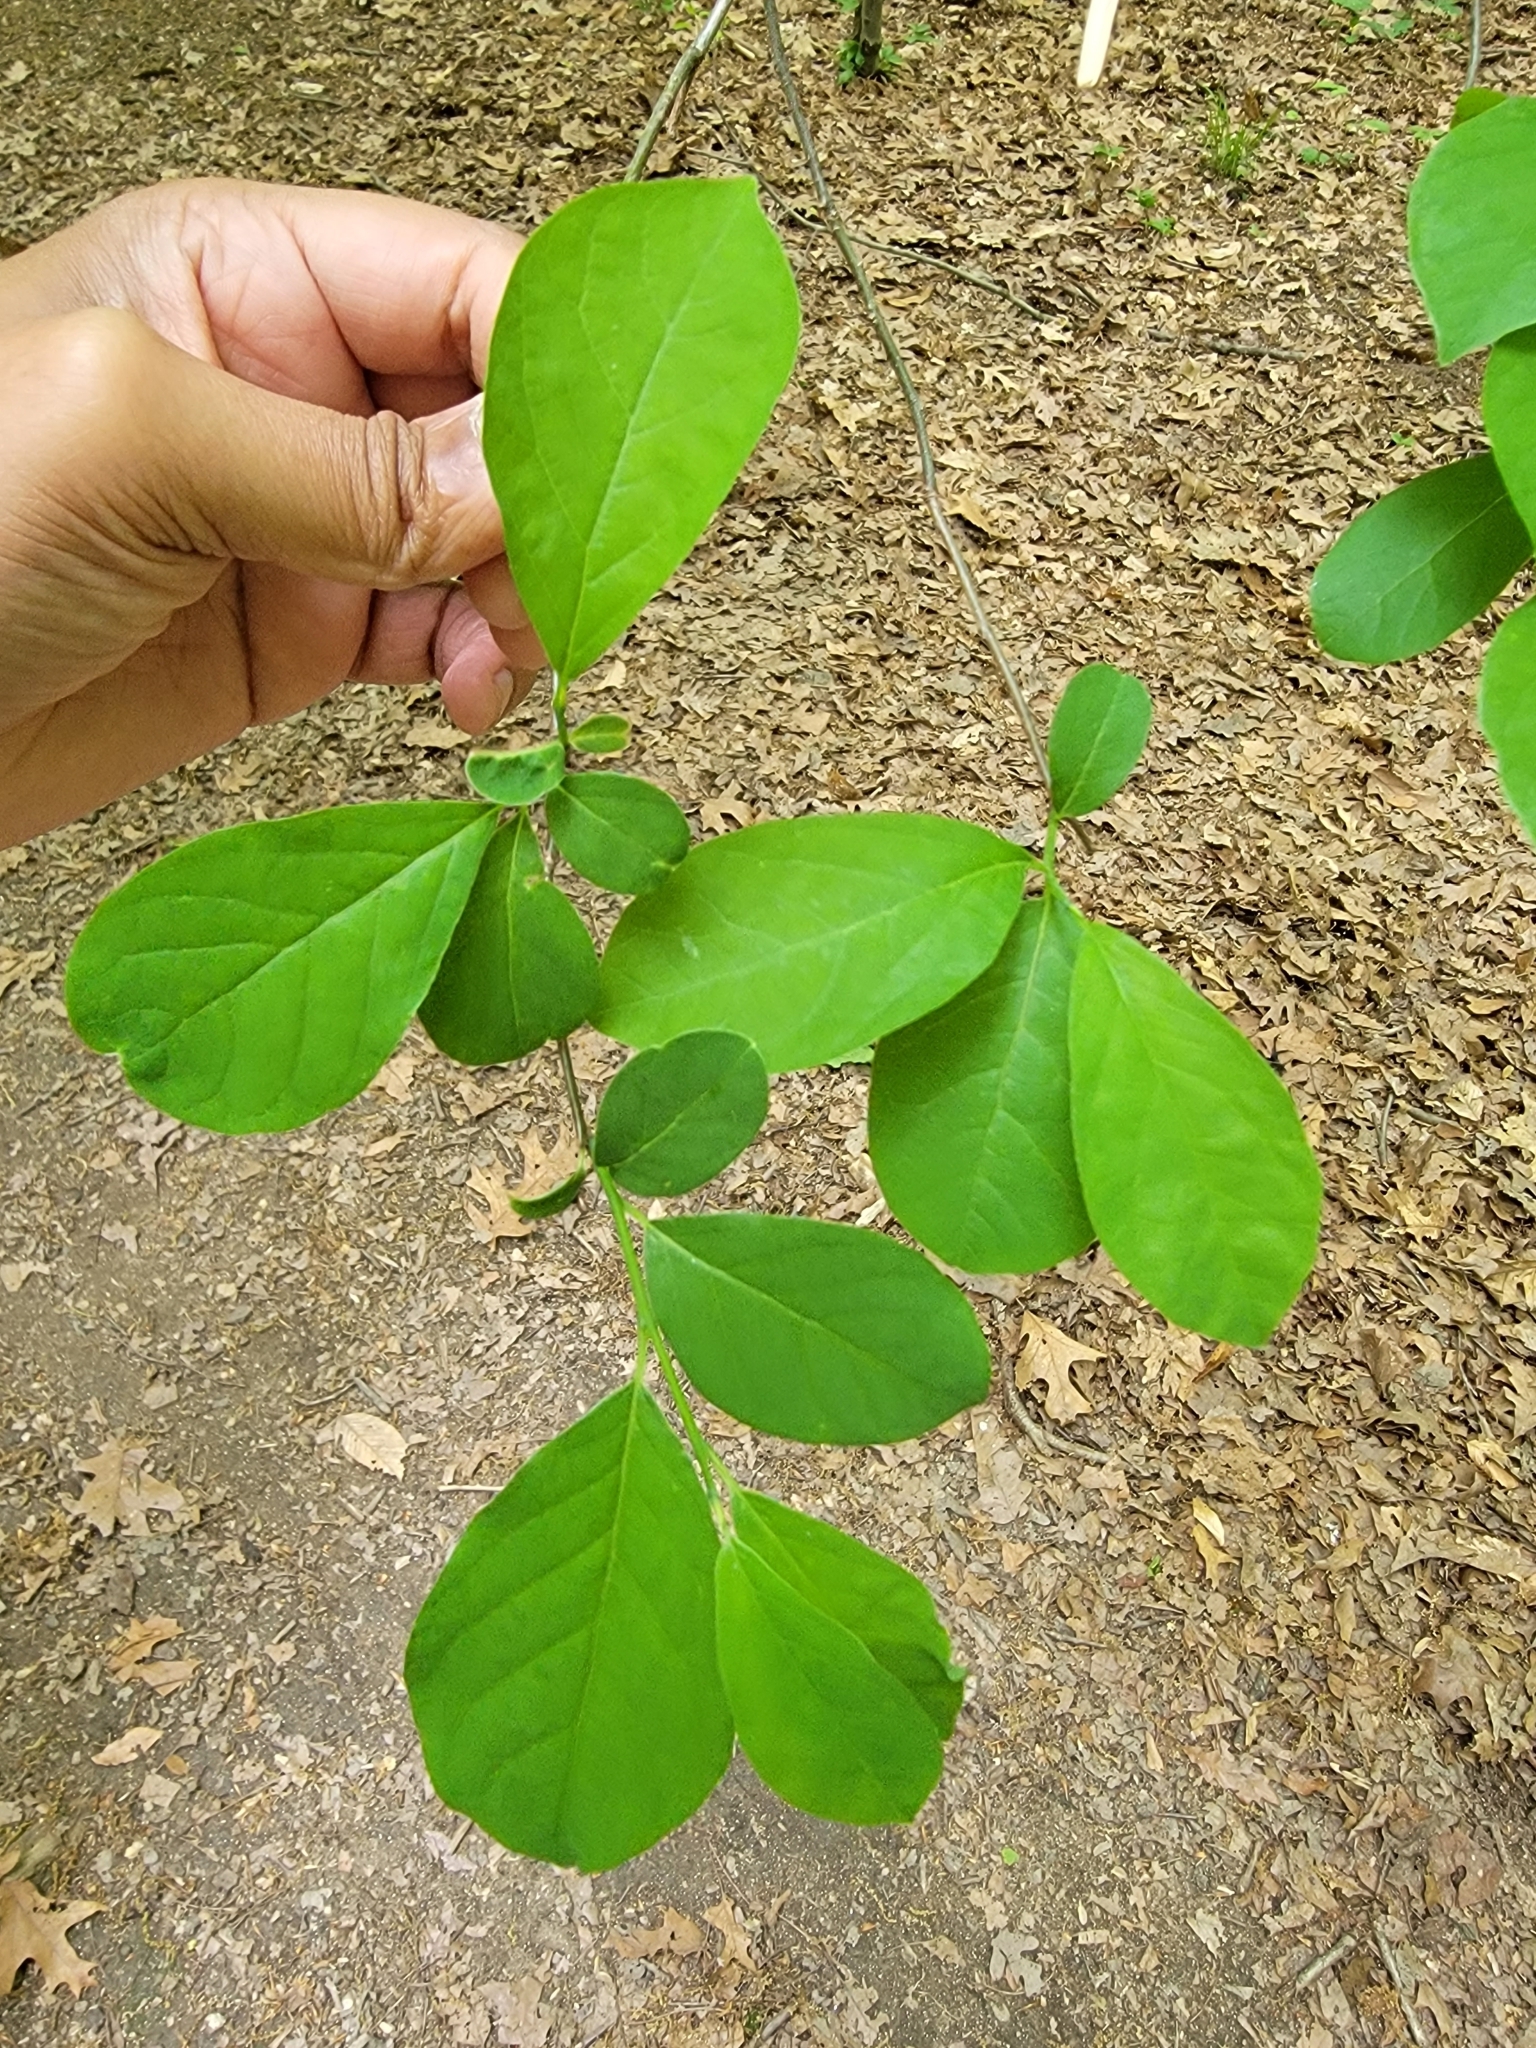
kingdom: Plantae
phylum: Tracheophyta
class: Magnoliopsida
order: Laurales
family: Lauraceae
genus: Lindera
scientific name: Lindera benzoin
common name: Spicebush
